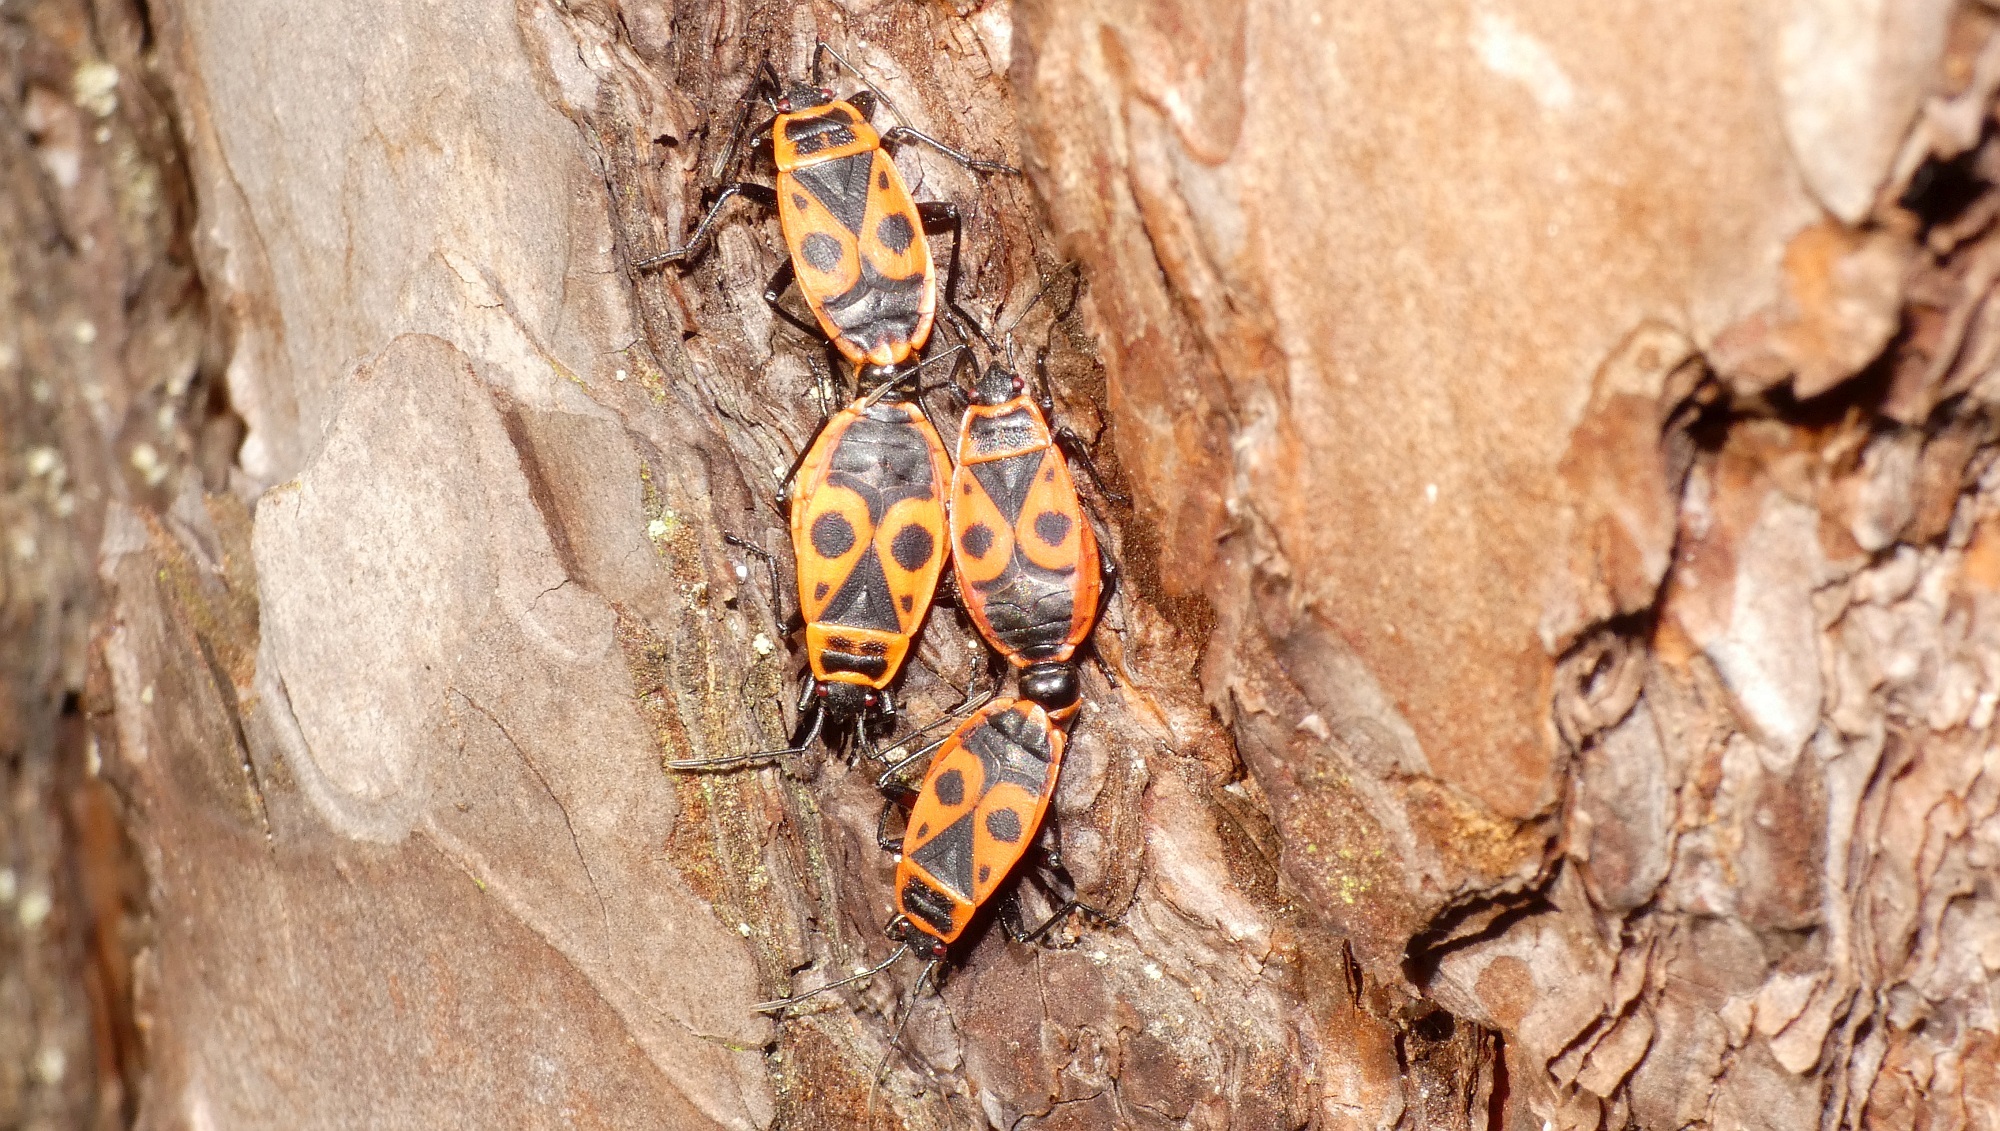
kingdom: Animalia
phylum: Arthropoda
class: Insecta
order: Hemiptera
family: Pyrrhocoridae
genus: Pyrrhocoris
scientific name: Pyrrhocoris apterus
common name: Firebug
